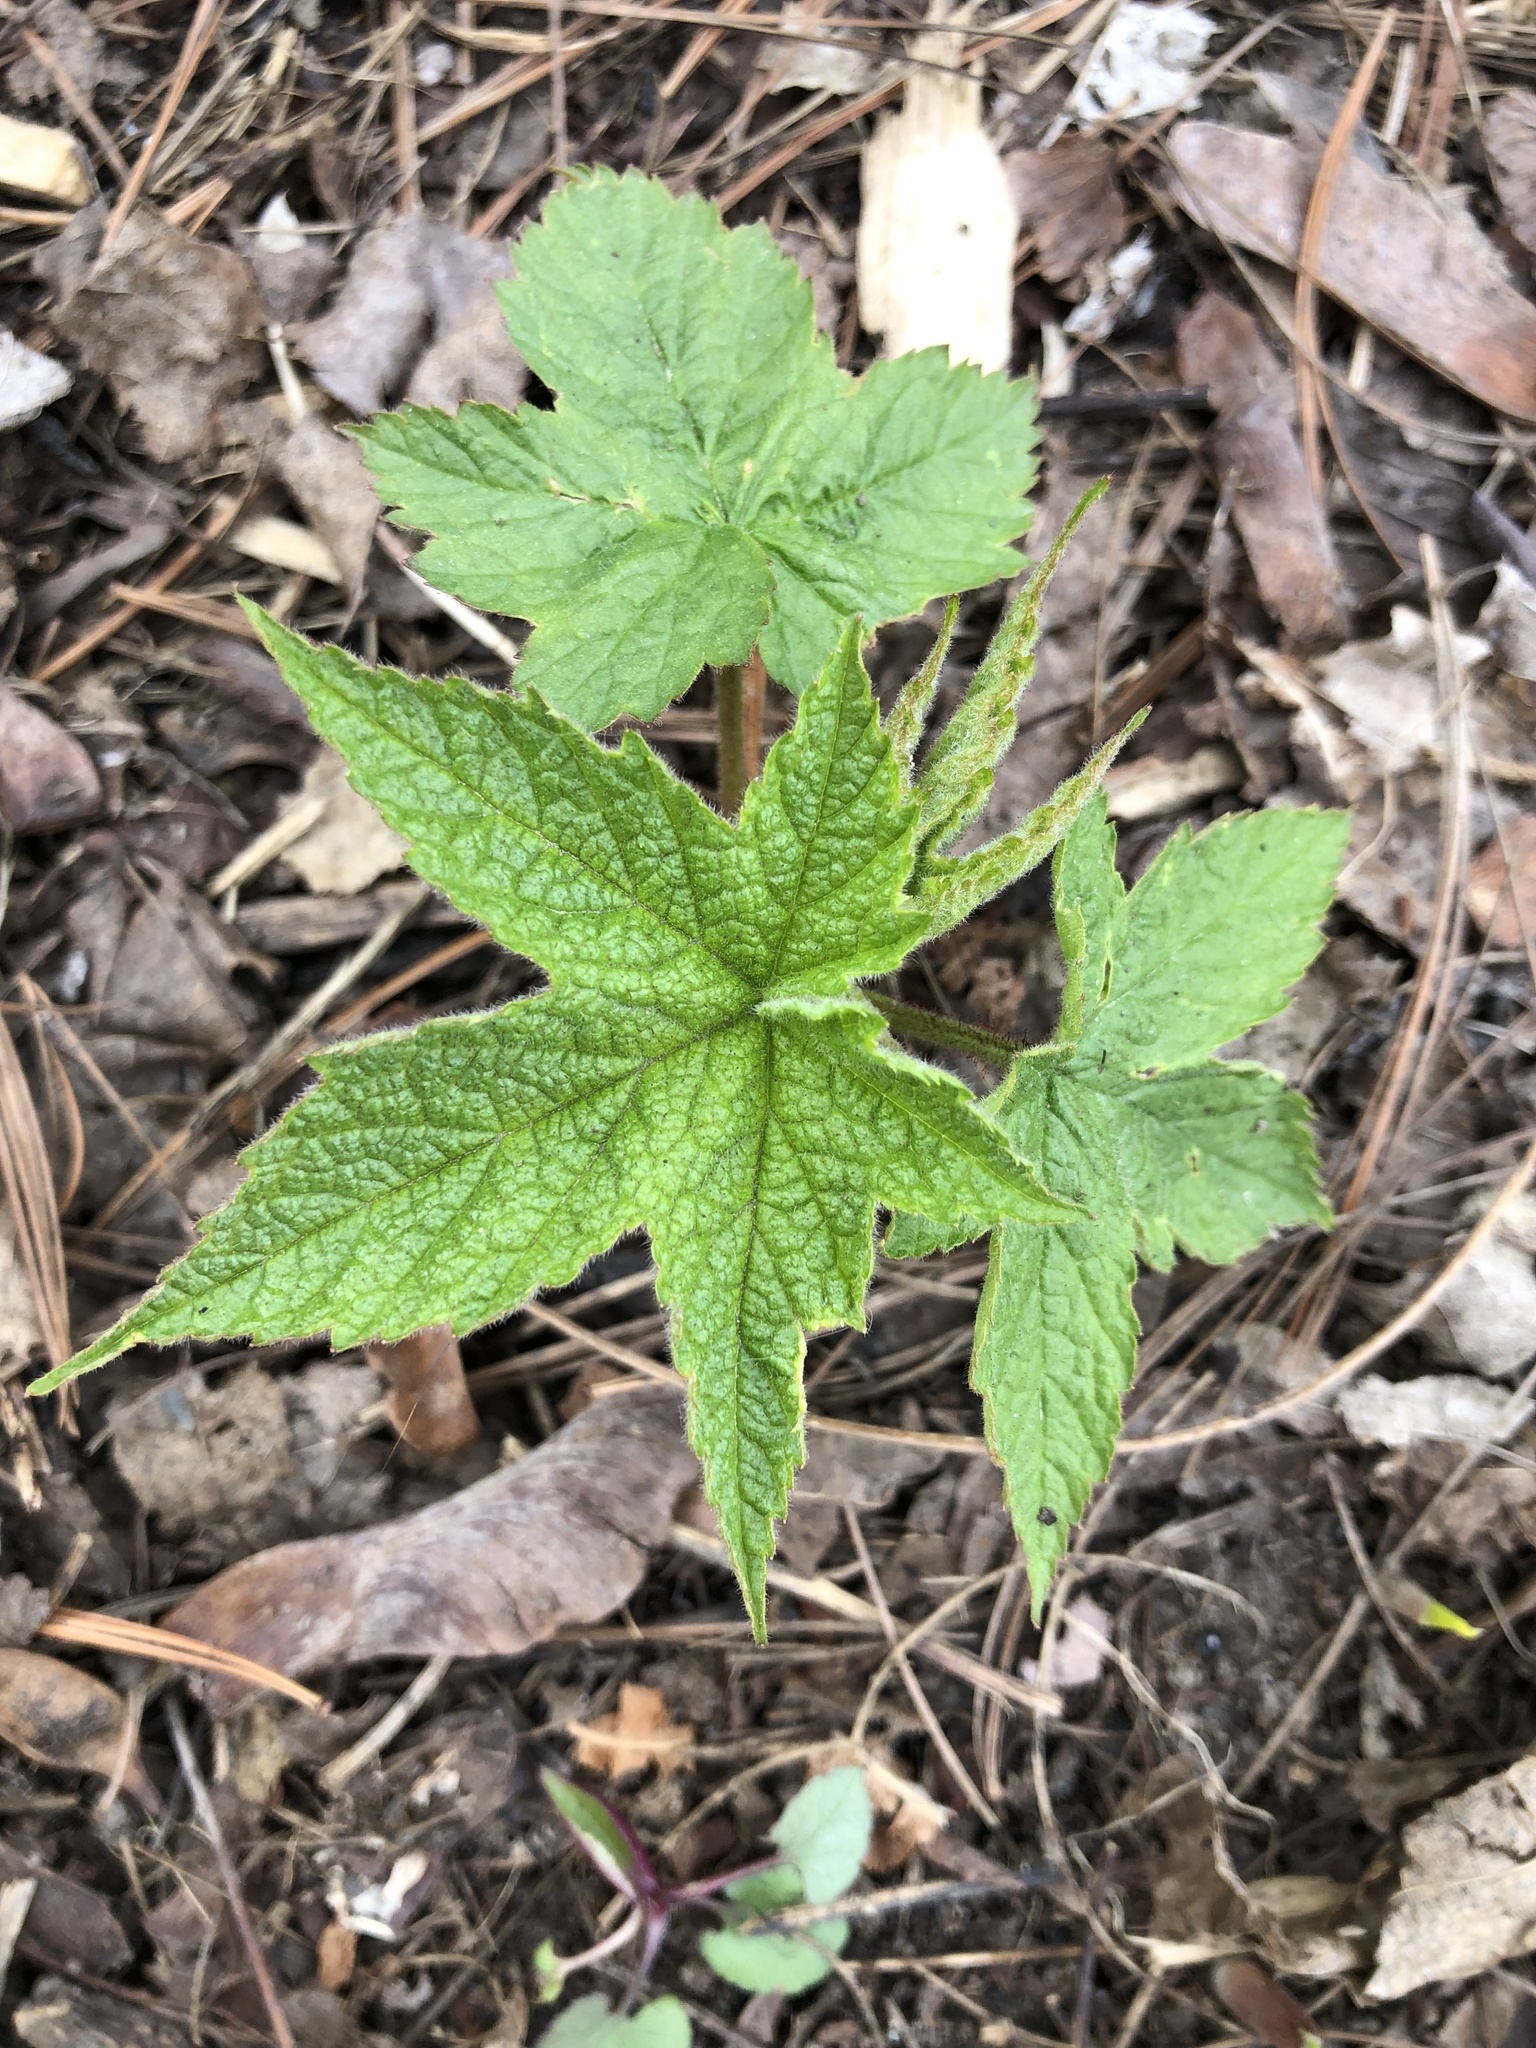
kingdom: Plantae
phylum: Tracheophyta
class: Magnoliopsida
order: Rosales
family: Rosaceae
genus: Rubus
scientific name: Rubus odoratus
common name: Purple-flowered raspberry
